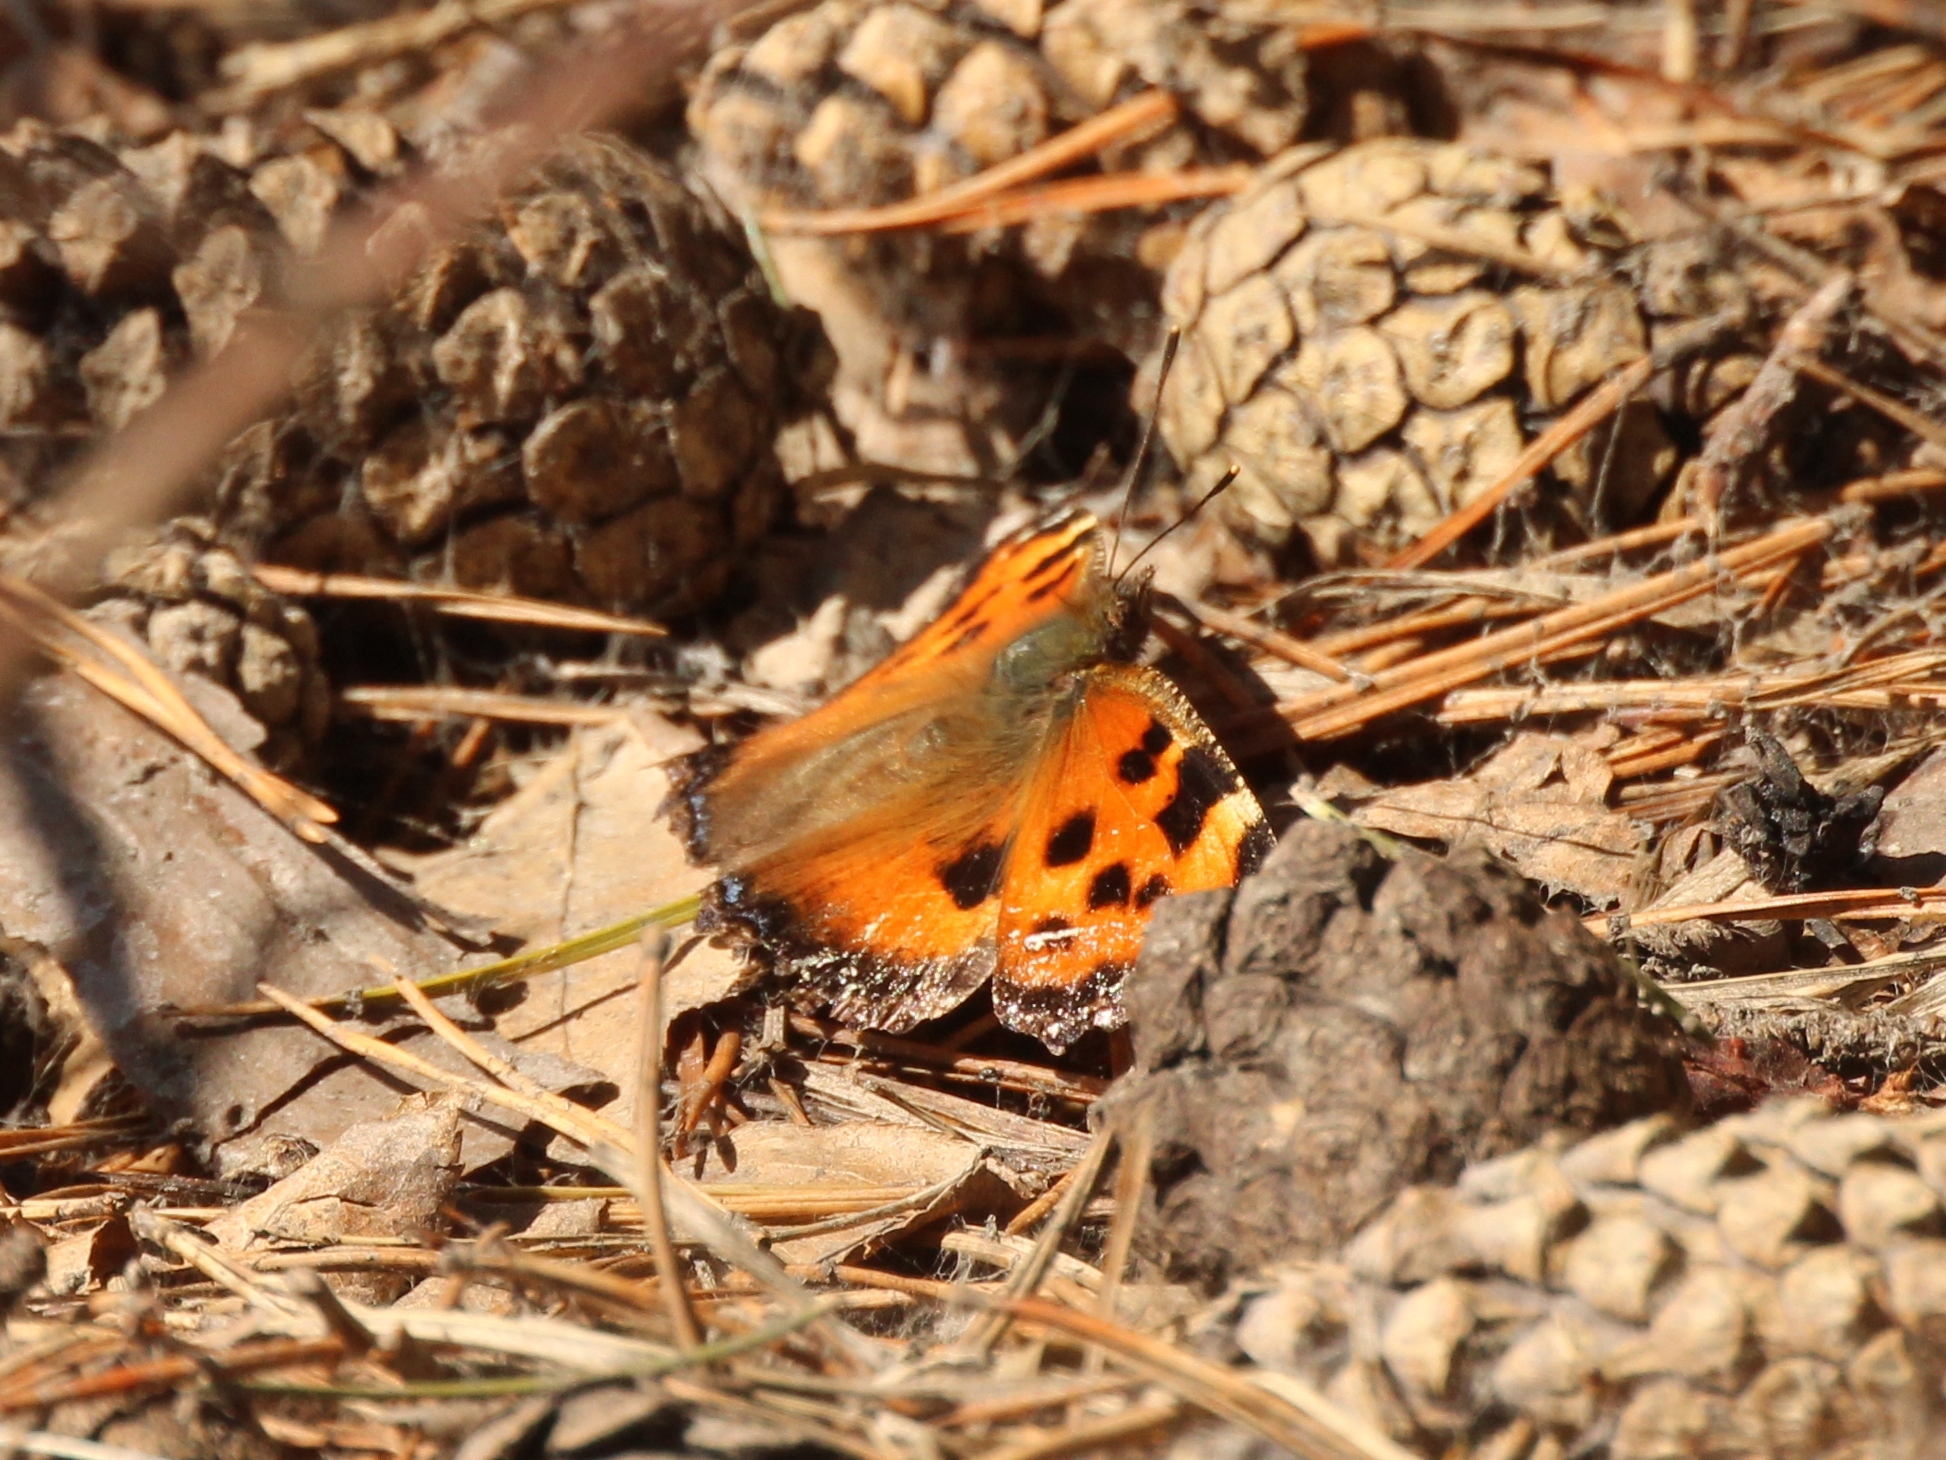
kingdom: Animalia
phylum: Arthropoda
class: Insecta
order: Lepidoptera
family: Nymphalidae
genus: Nymphalis
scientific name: Nymphalis xanthomelas
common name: Scarce tortoiseshell
